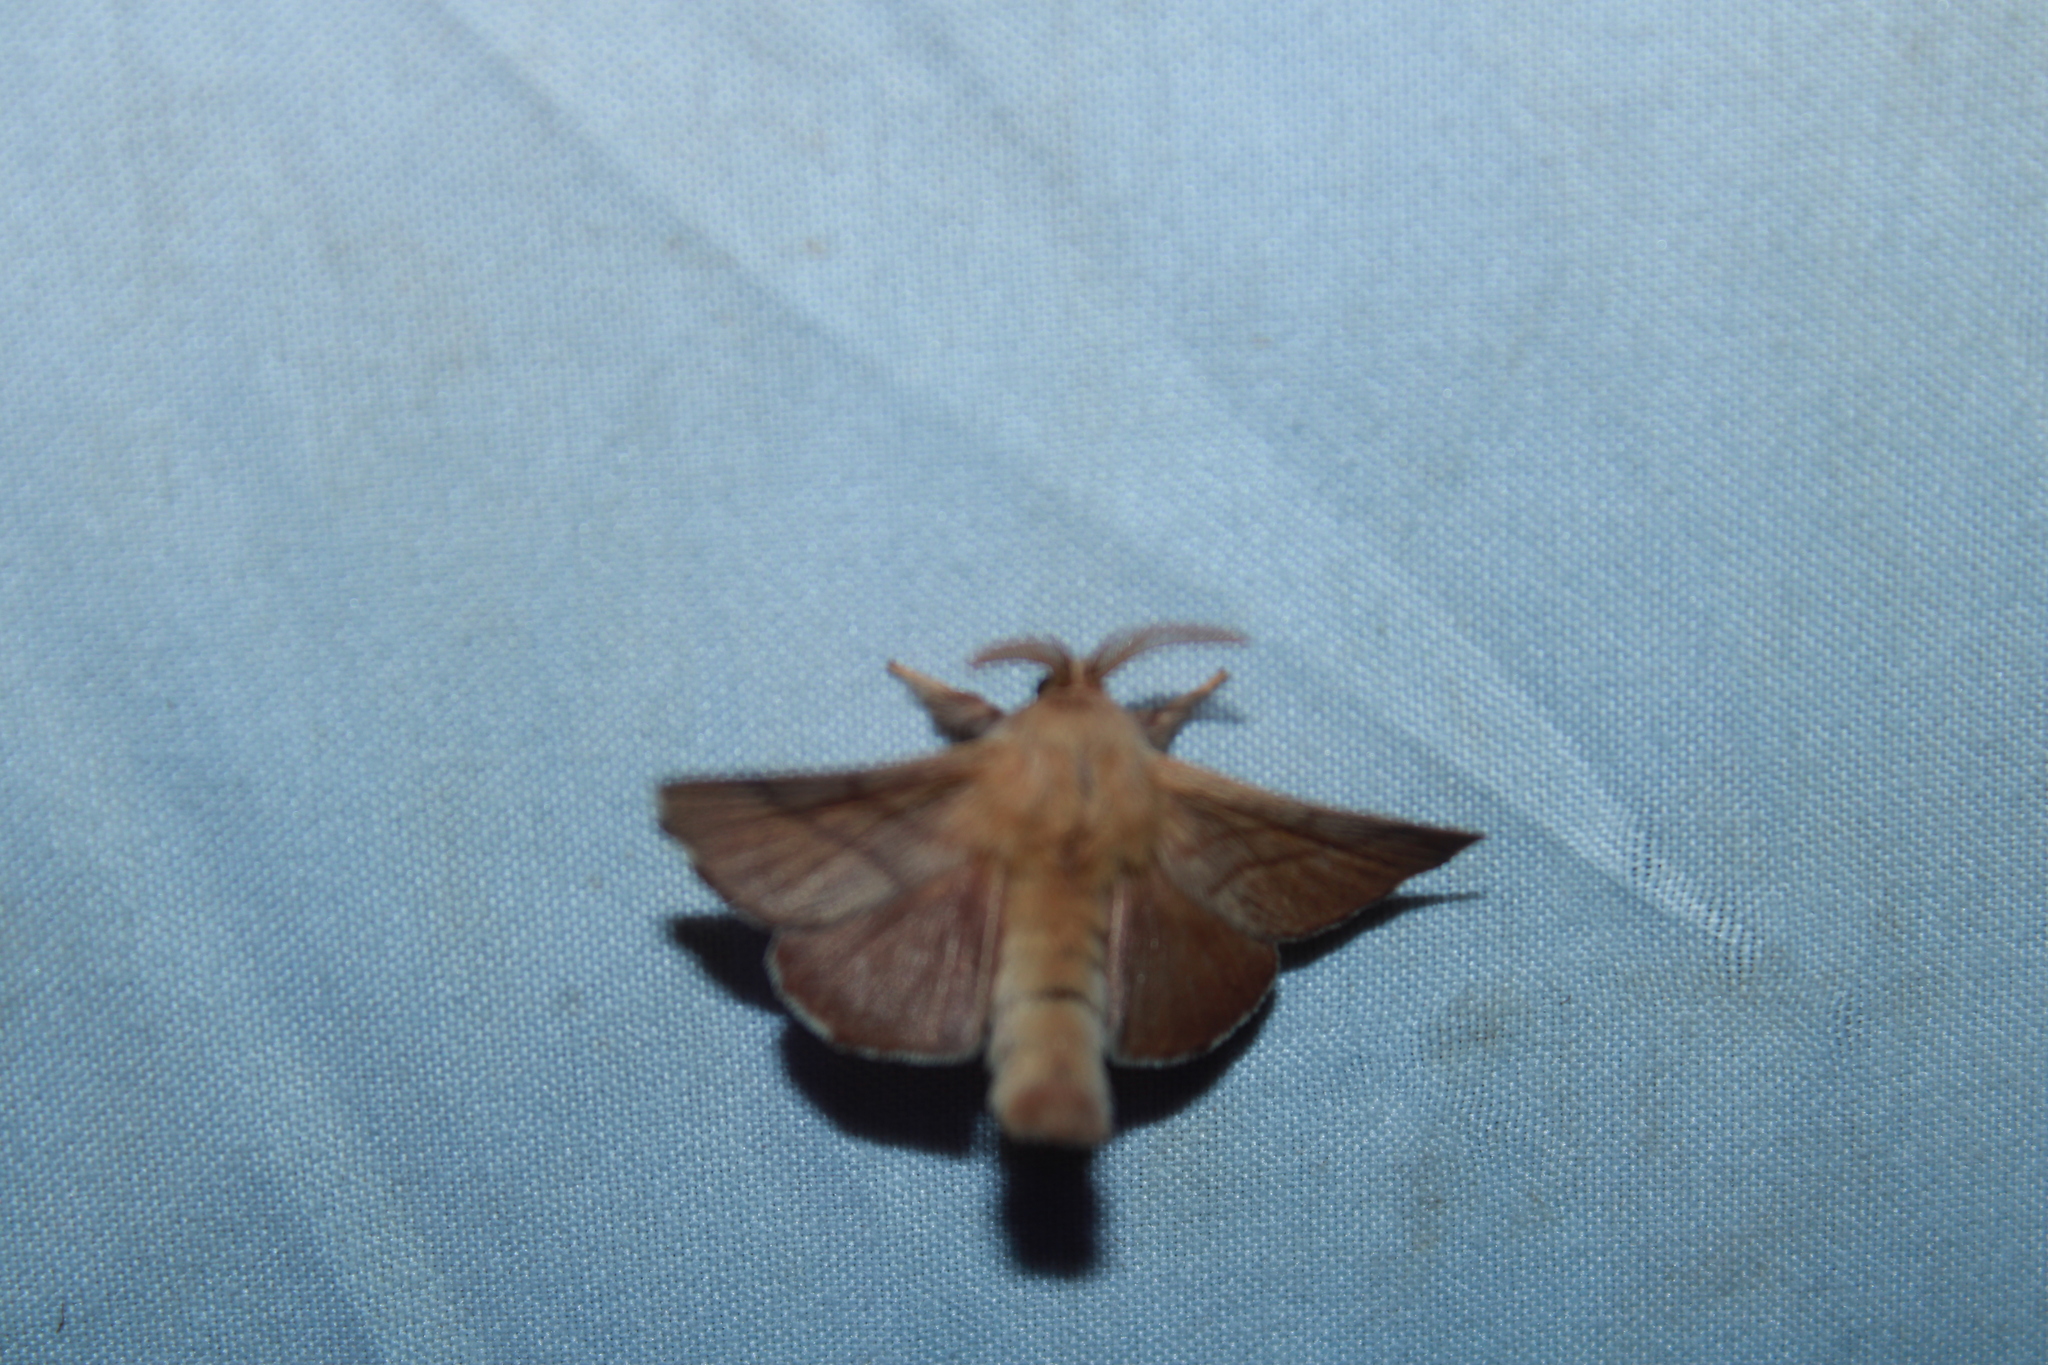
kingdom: Animalia
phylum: Arthropoda
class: Insecta
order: Lepidoptera
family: Lasiocampidae
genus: Malacosoma
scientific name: Malacosoma disstria
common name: Forest tent caterpillar
